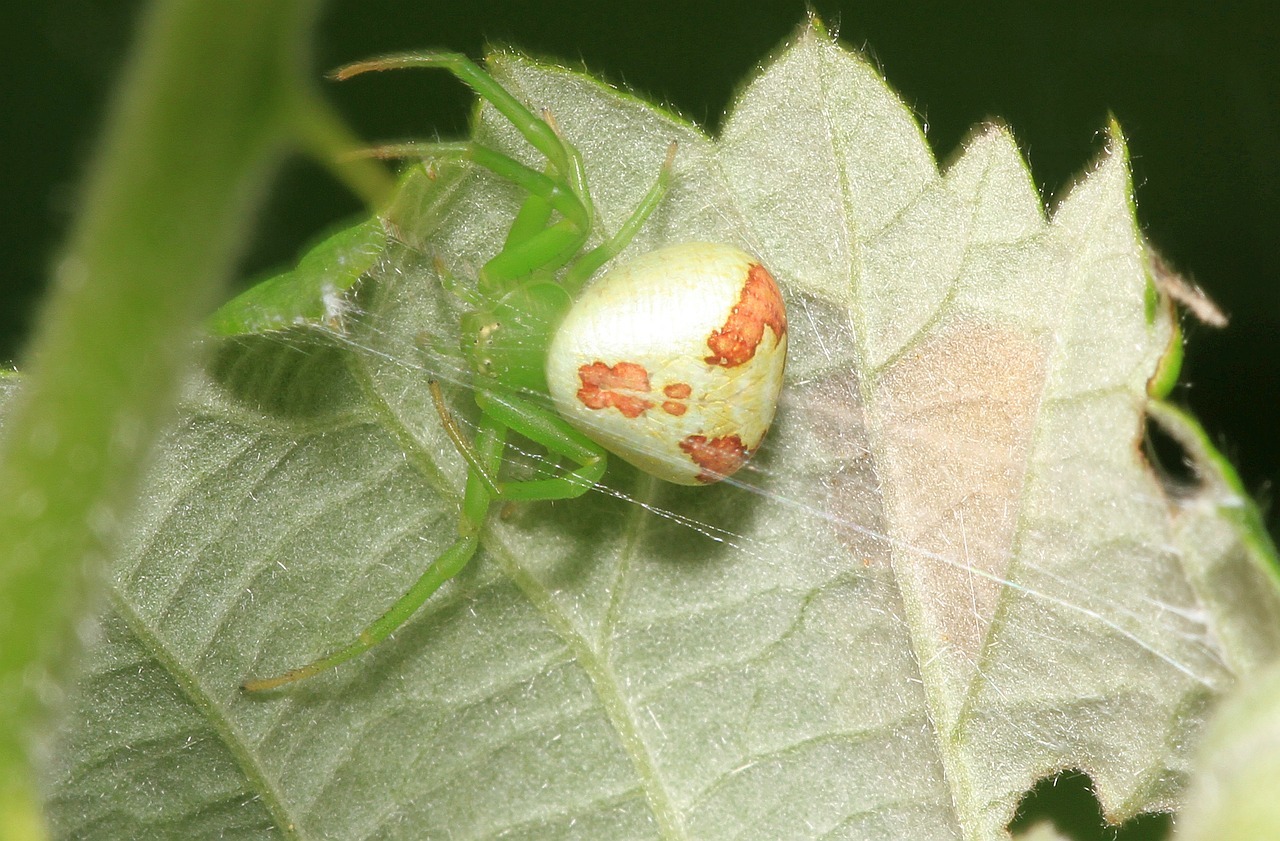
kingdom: Animalia
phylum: Arthropoda
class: Arachnida
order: Araneae
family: Thomisidae
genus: Ebrechtella
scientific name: Ebrechtella tricuspidata
